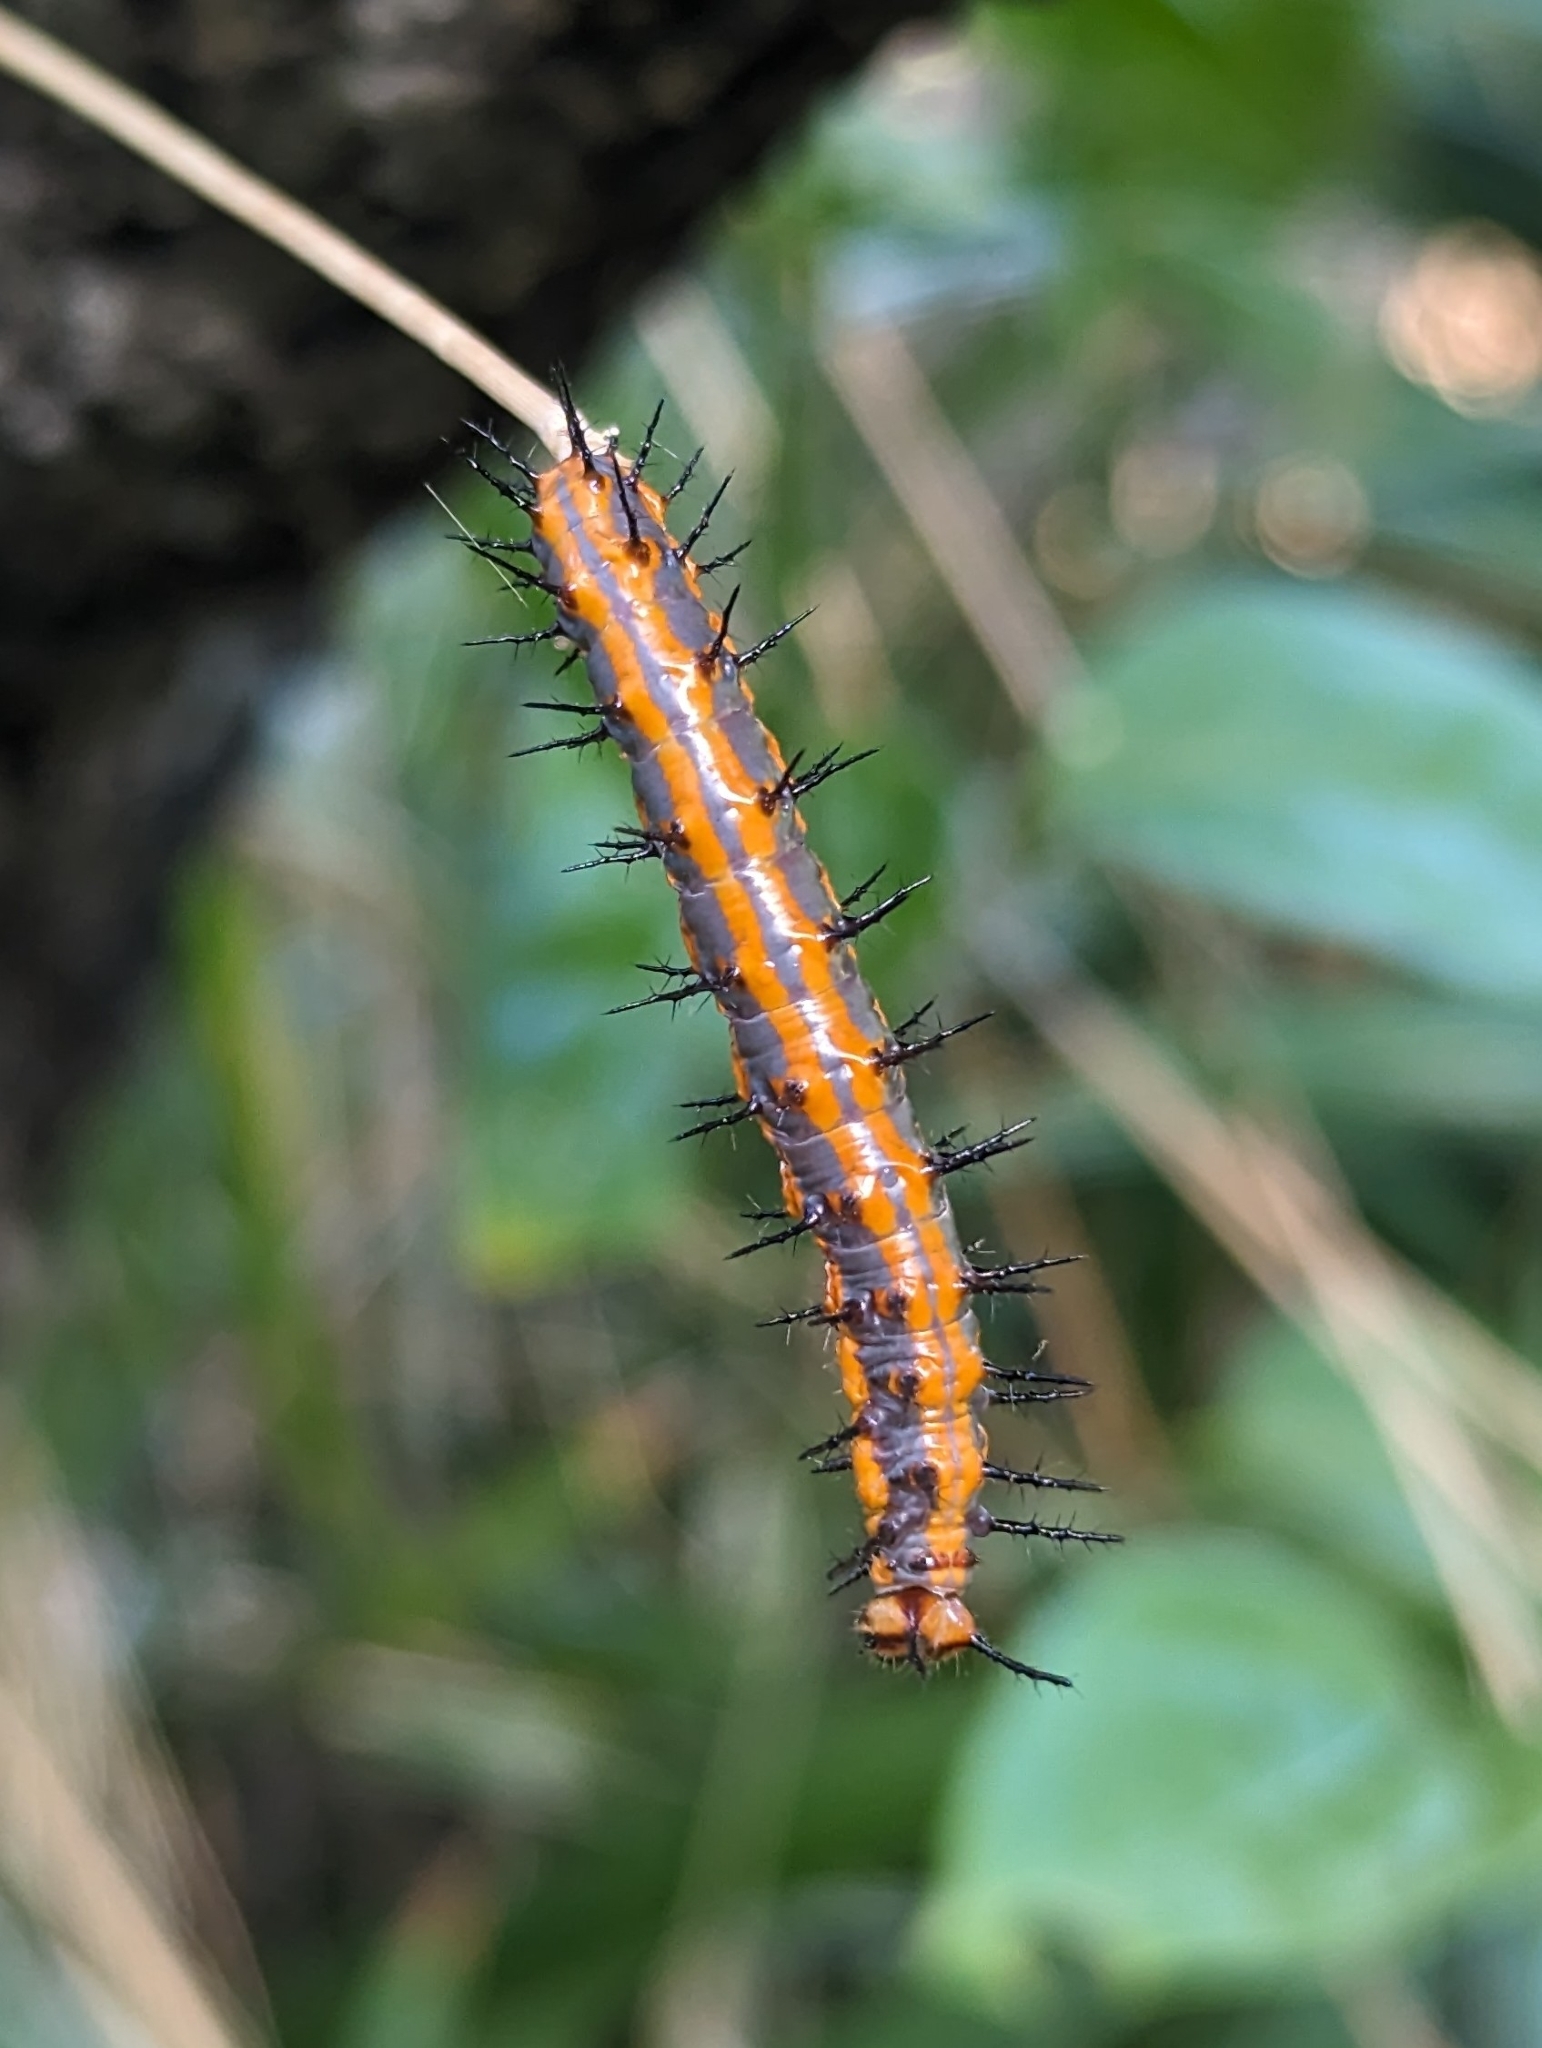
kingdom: Animalia
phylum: Arthropoda
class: Insecta
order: Lepidoptera
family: Nymphalidae
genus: Dione
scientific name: Dione vanillae
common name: Gulf fritillary
